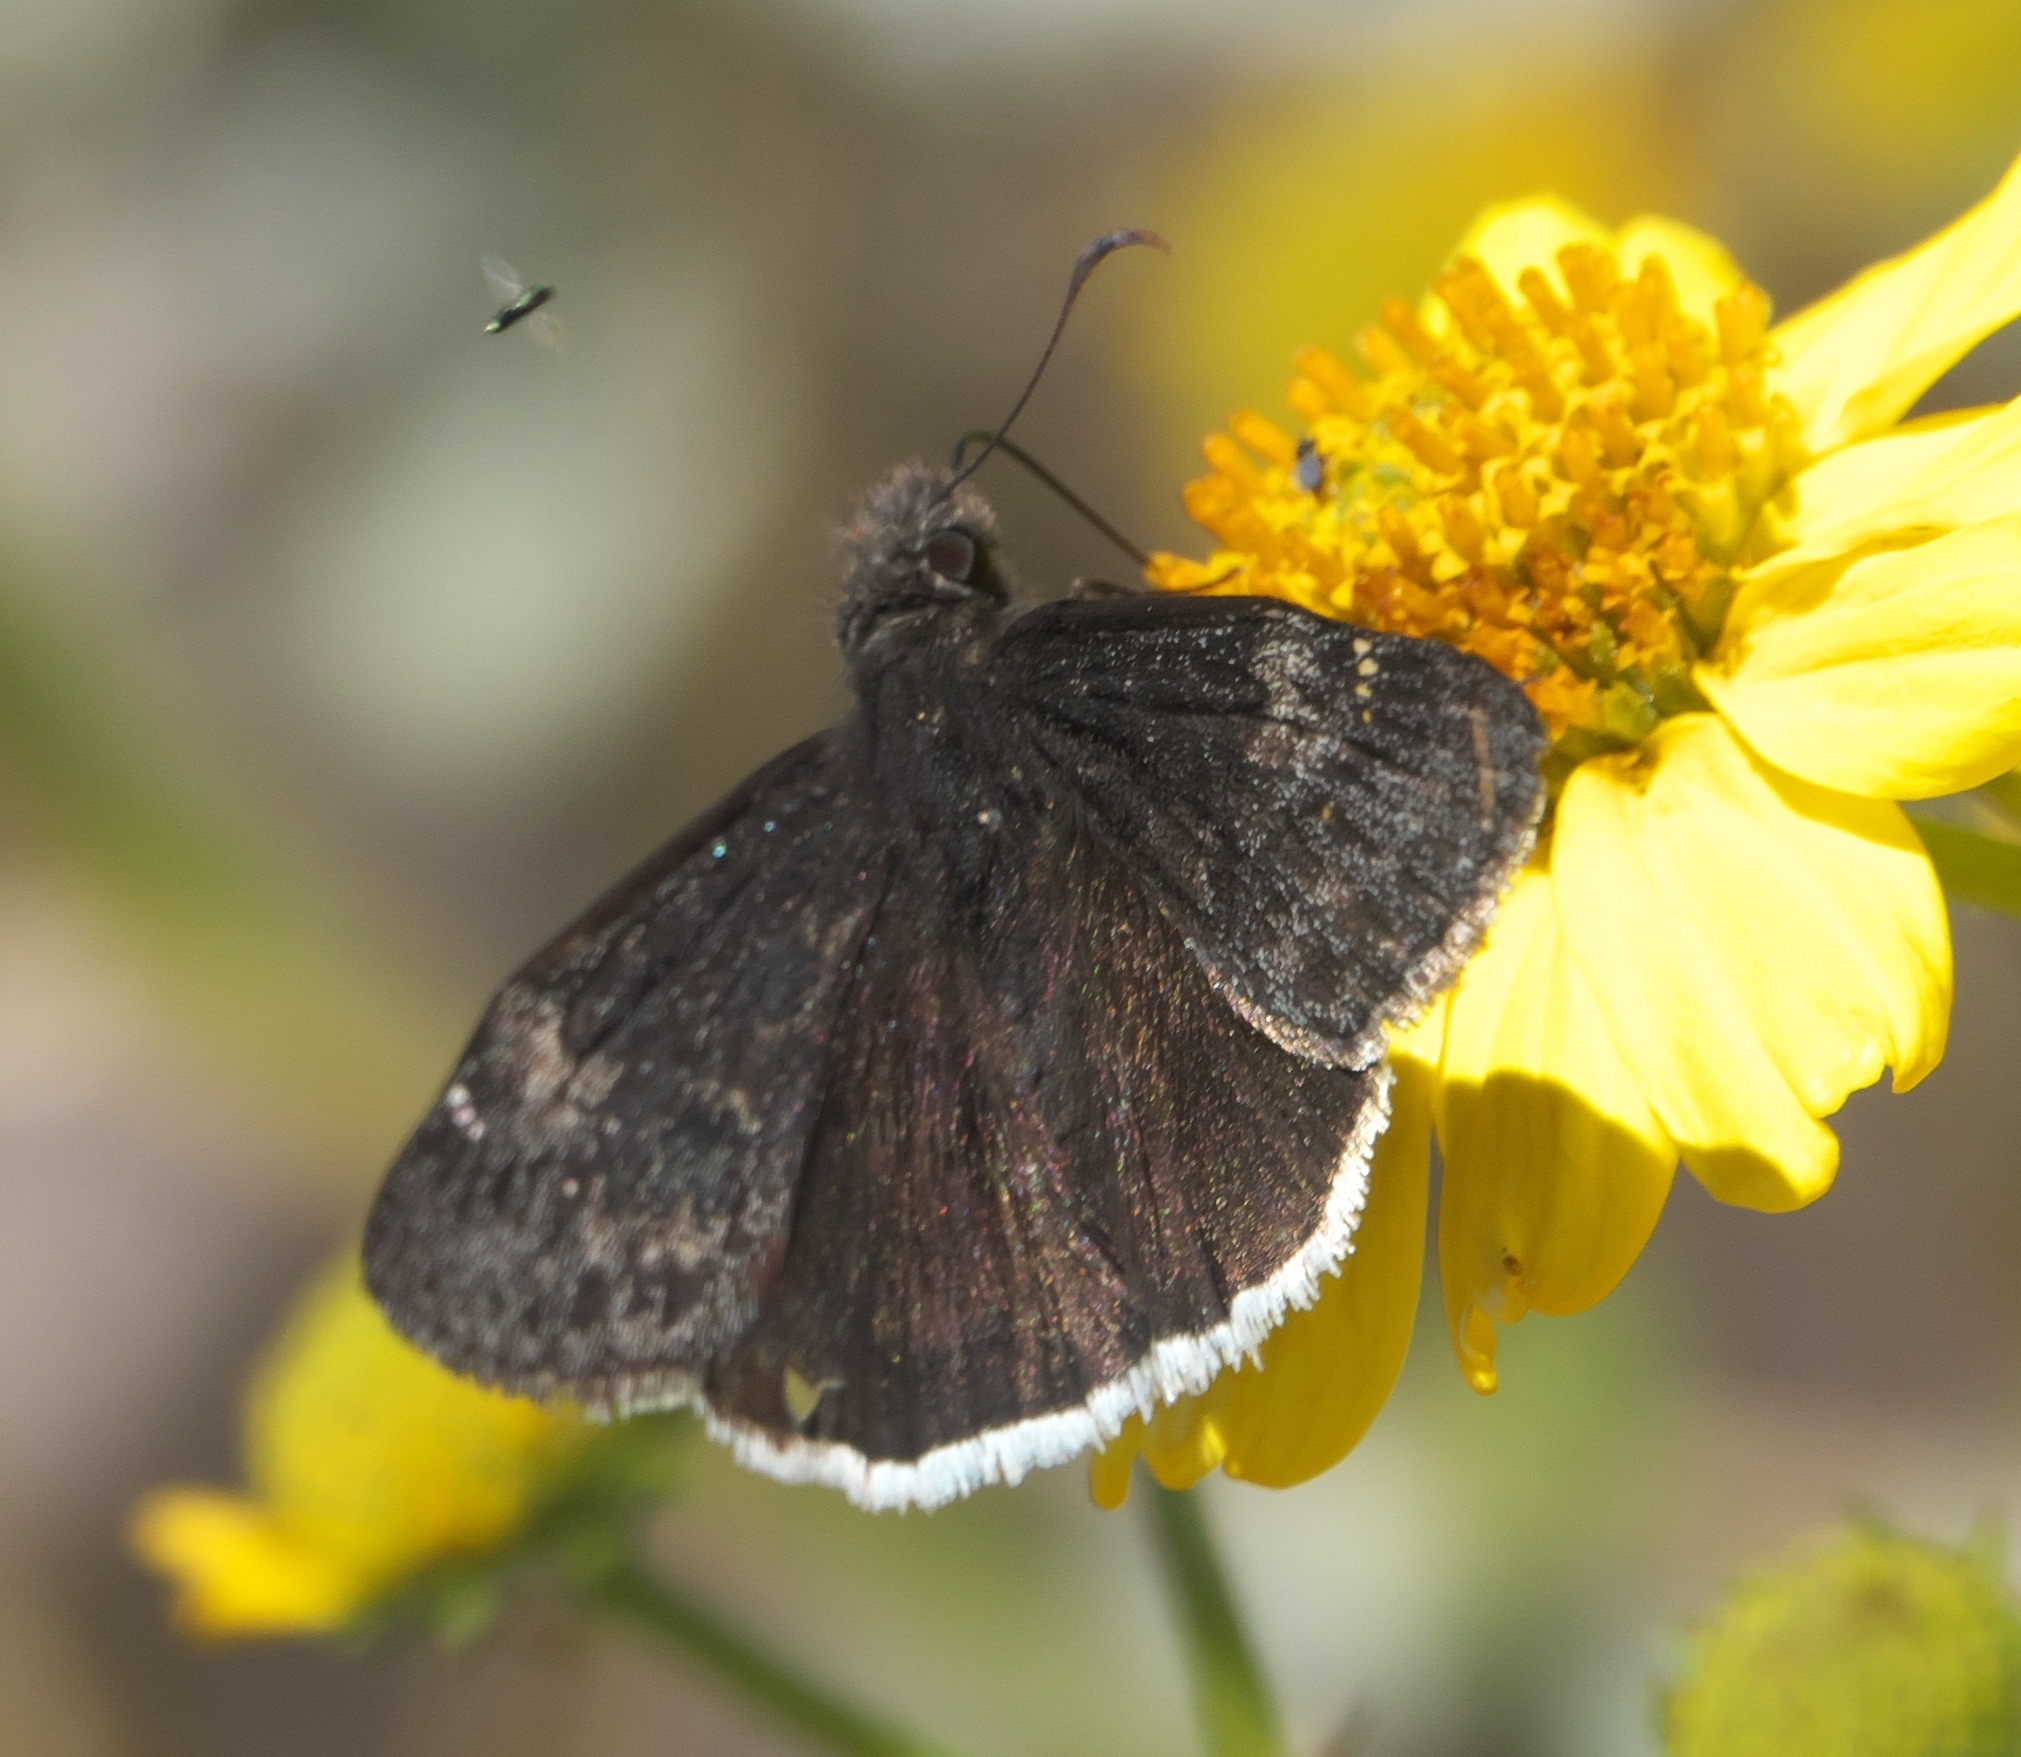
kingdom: Animalia
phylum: Arthropoda
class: Insecta
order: Lepidoptera
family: Hesperiidae
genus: Erynnis
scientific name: Erynnis funeralis
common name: Funereal duskywing
